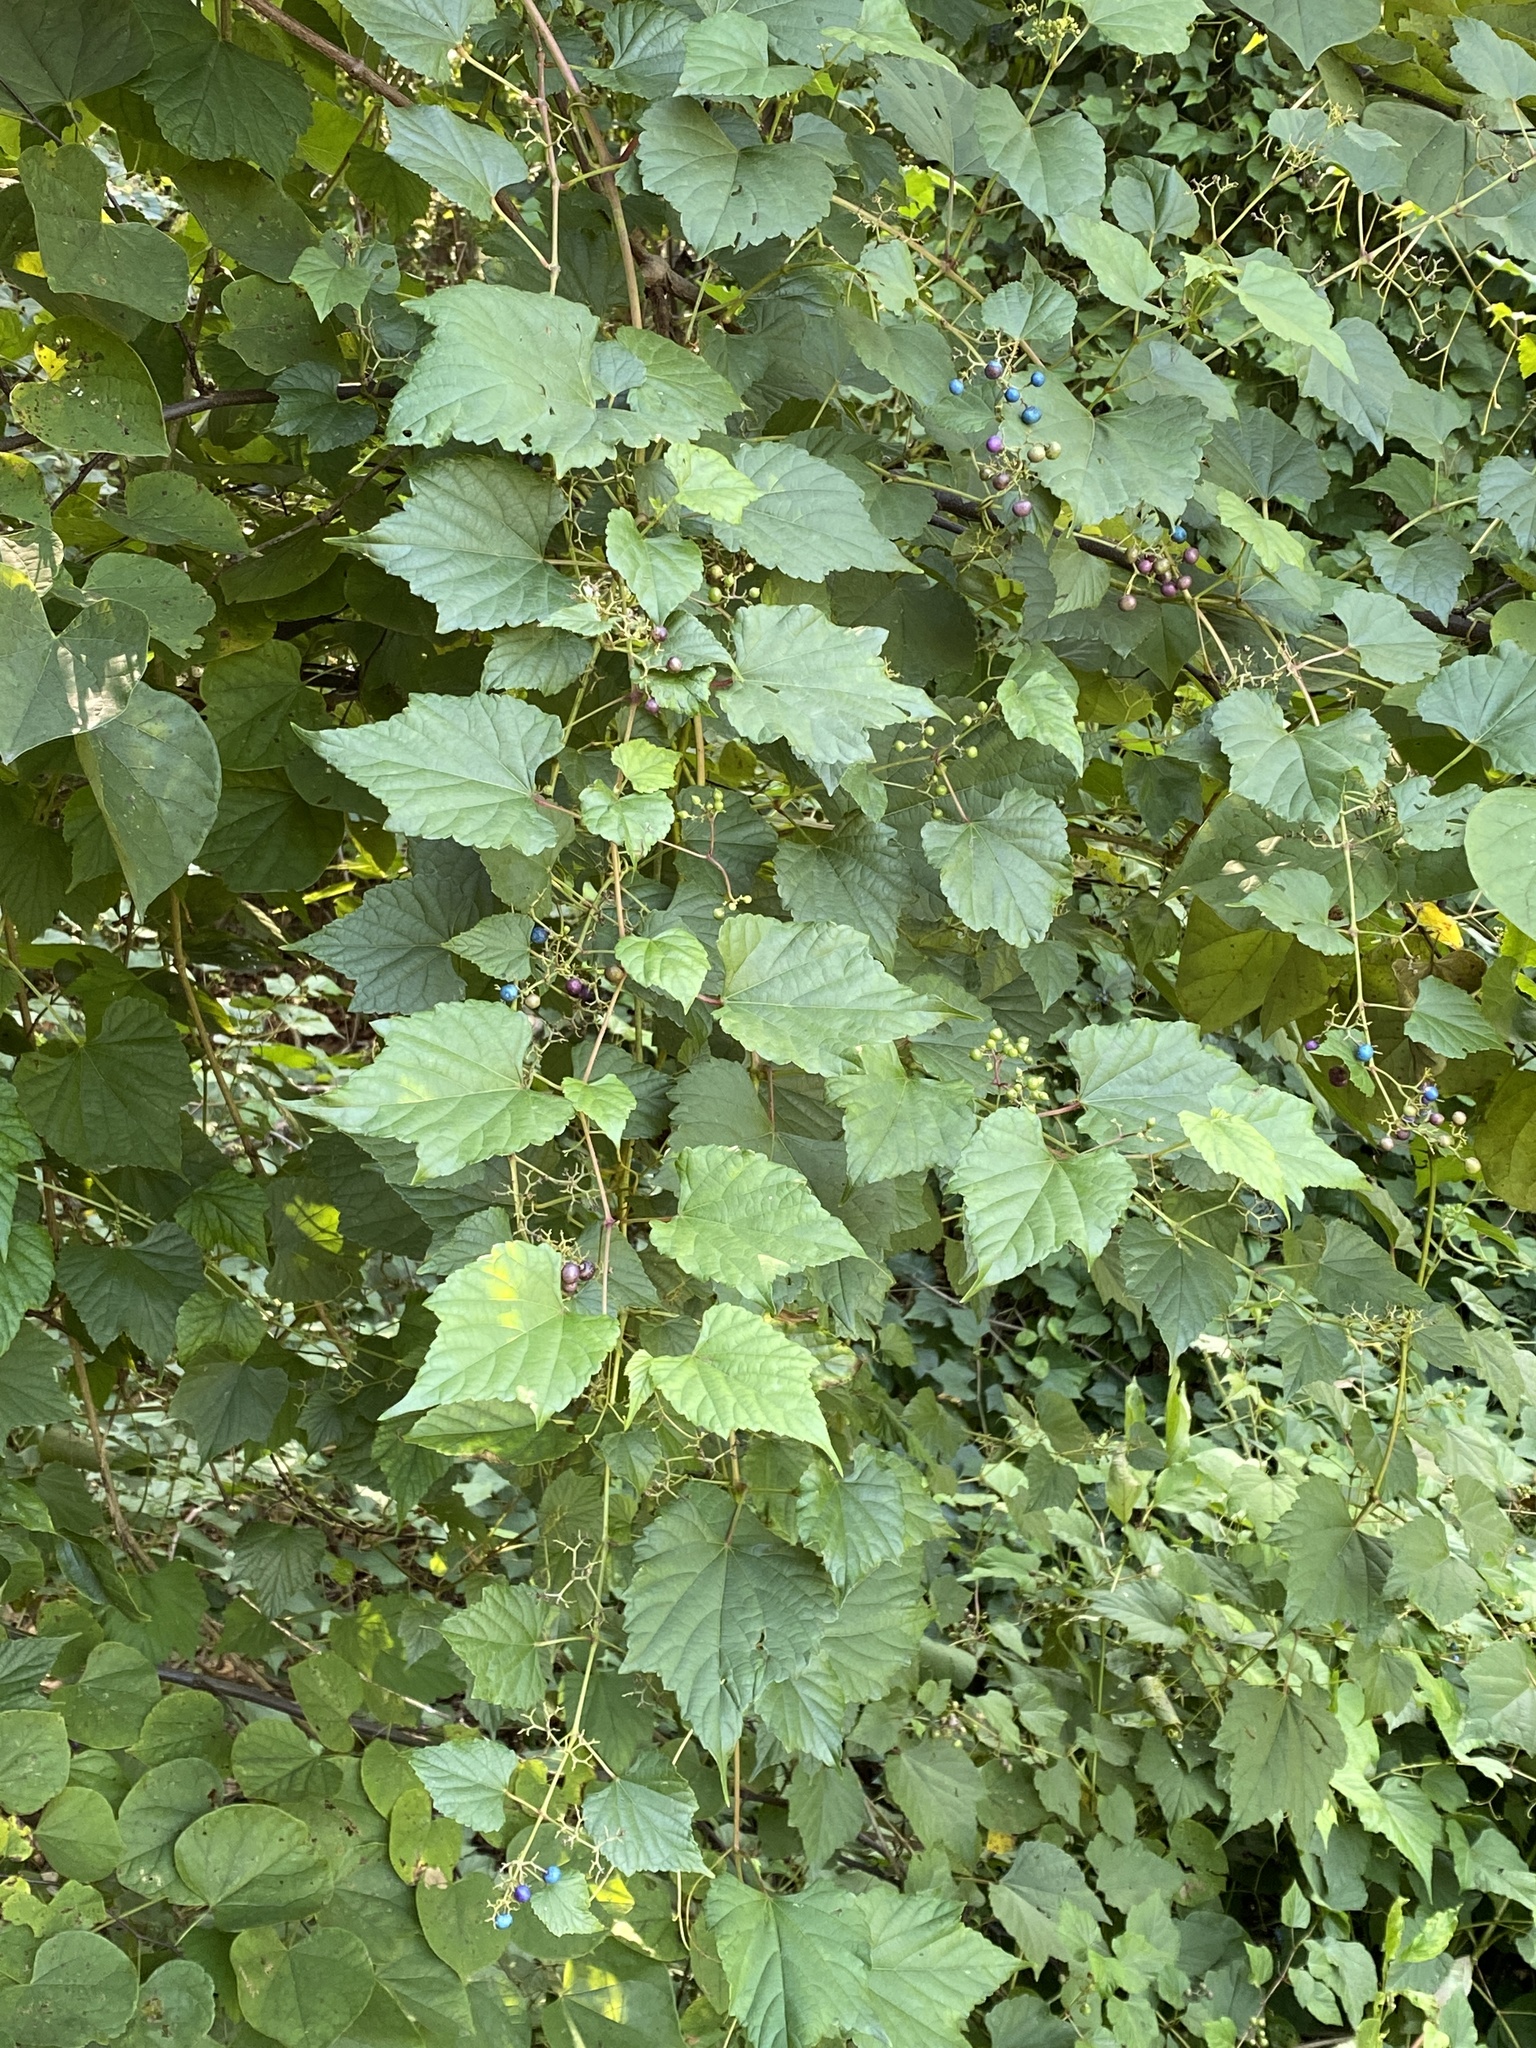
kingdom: Plantae
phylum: Tracheophyta
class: Magnoliopsida
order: Vitales
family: Vitaceae
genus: Ampelopsis
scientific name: Ampelopsis glandulosa
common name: Amur peppervine
